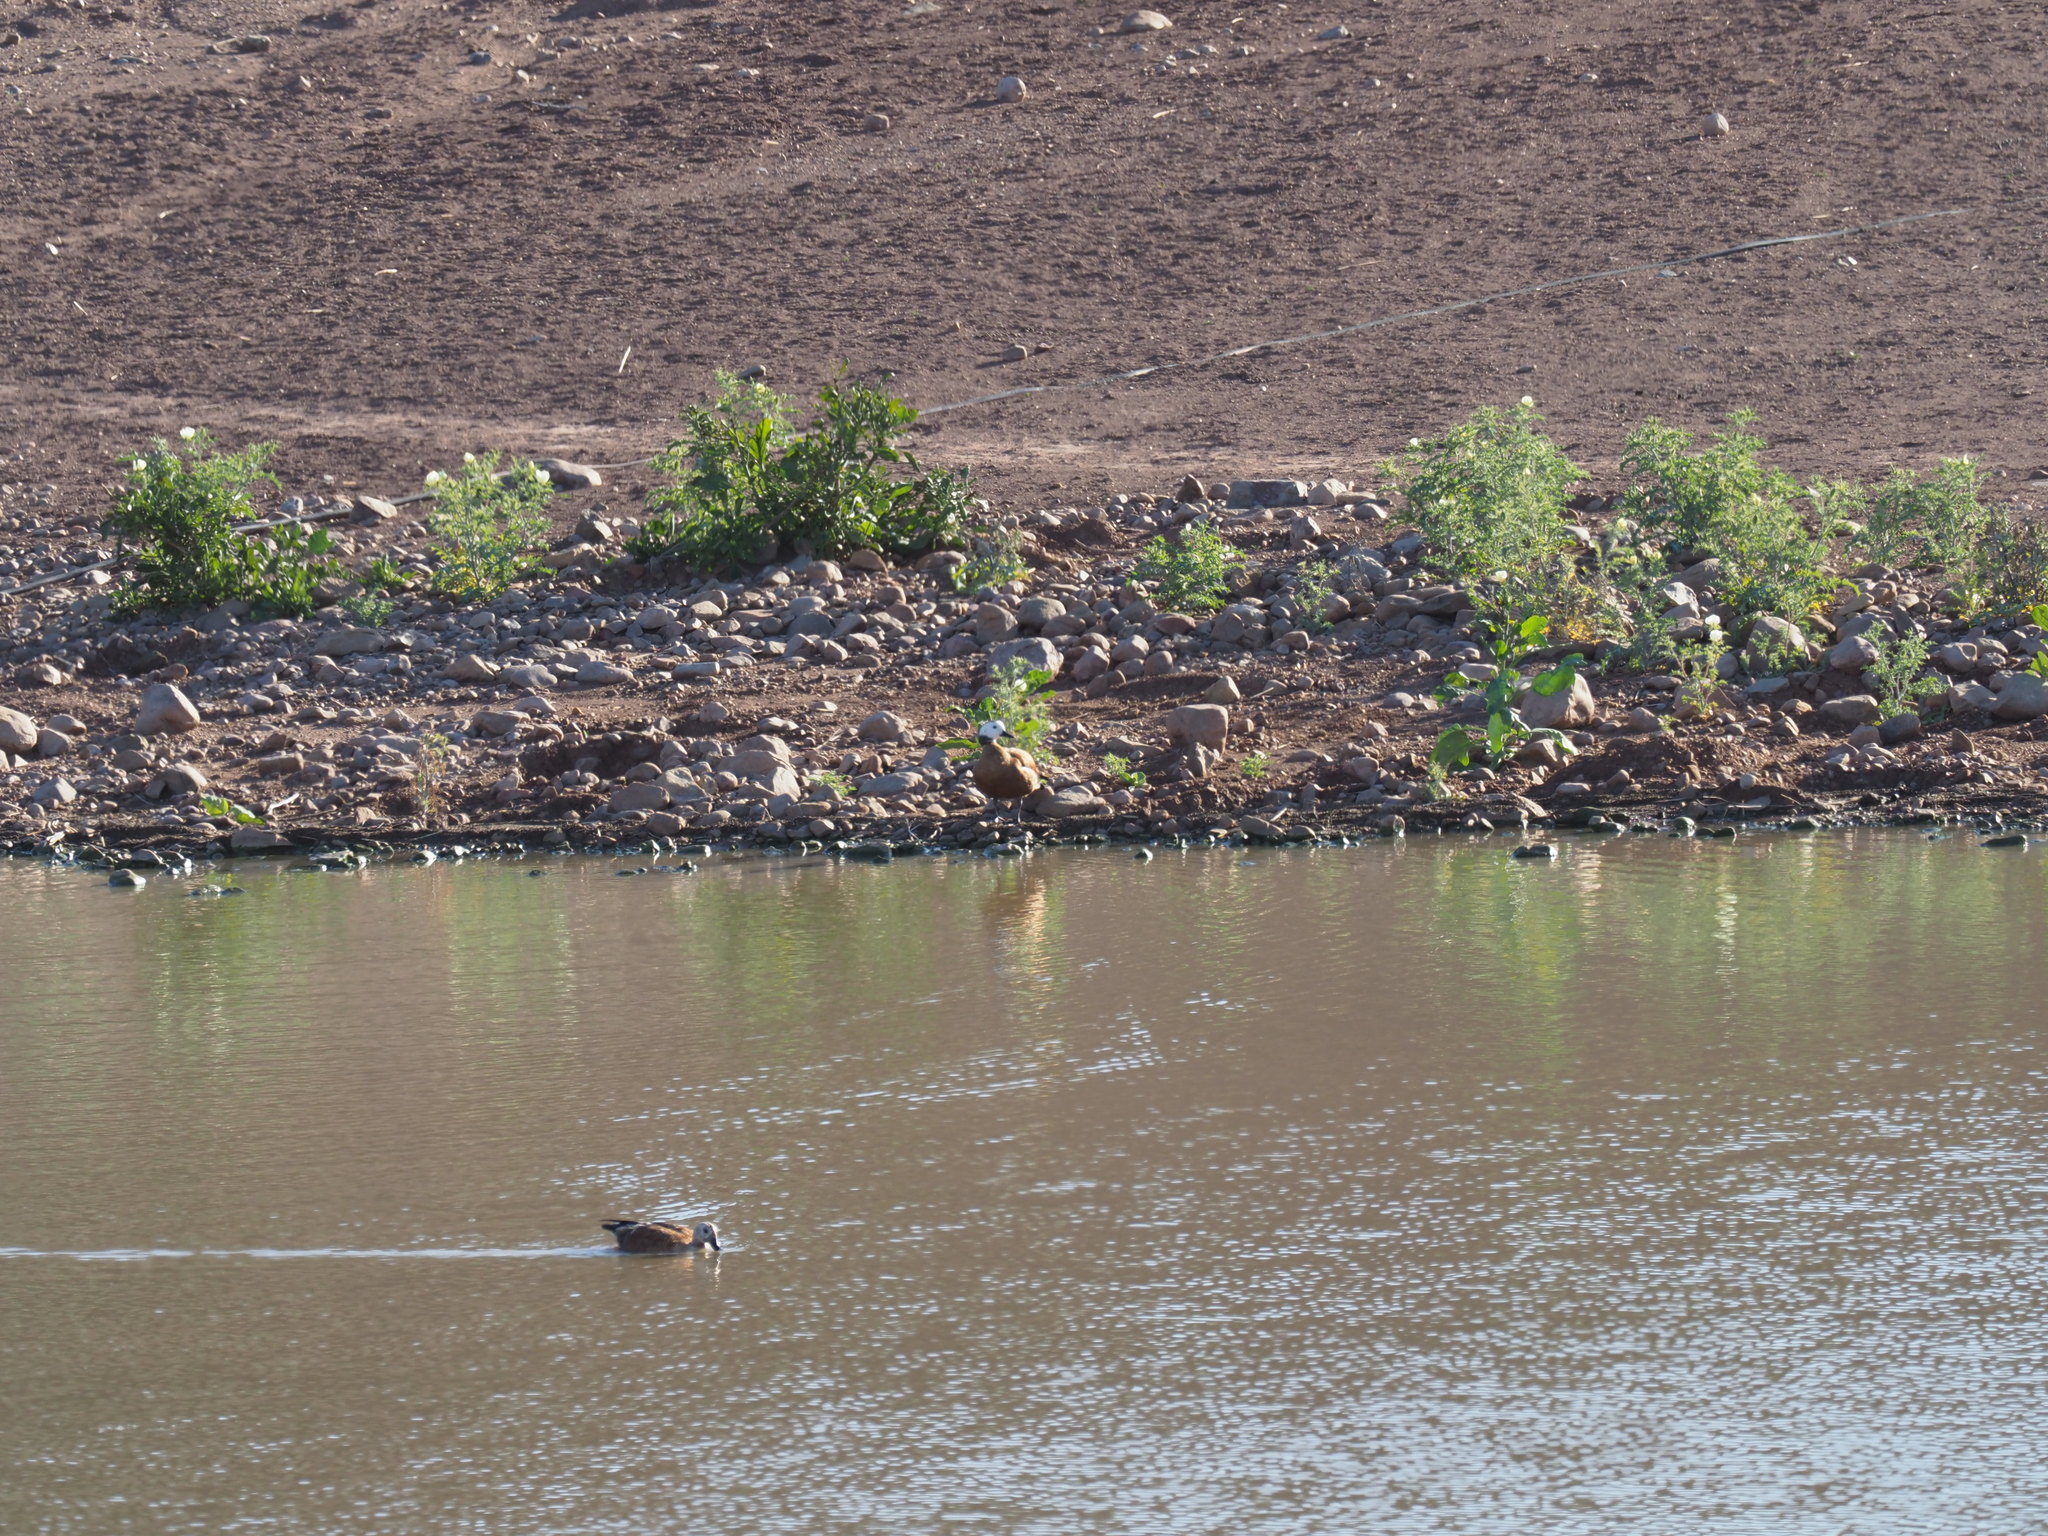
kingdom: Animalia
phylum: Chordata
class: Aves
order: Anseriformes
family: Anatidae
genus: Tadorna
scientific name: Tadorna cana
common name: South african shelduck
